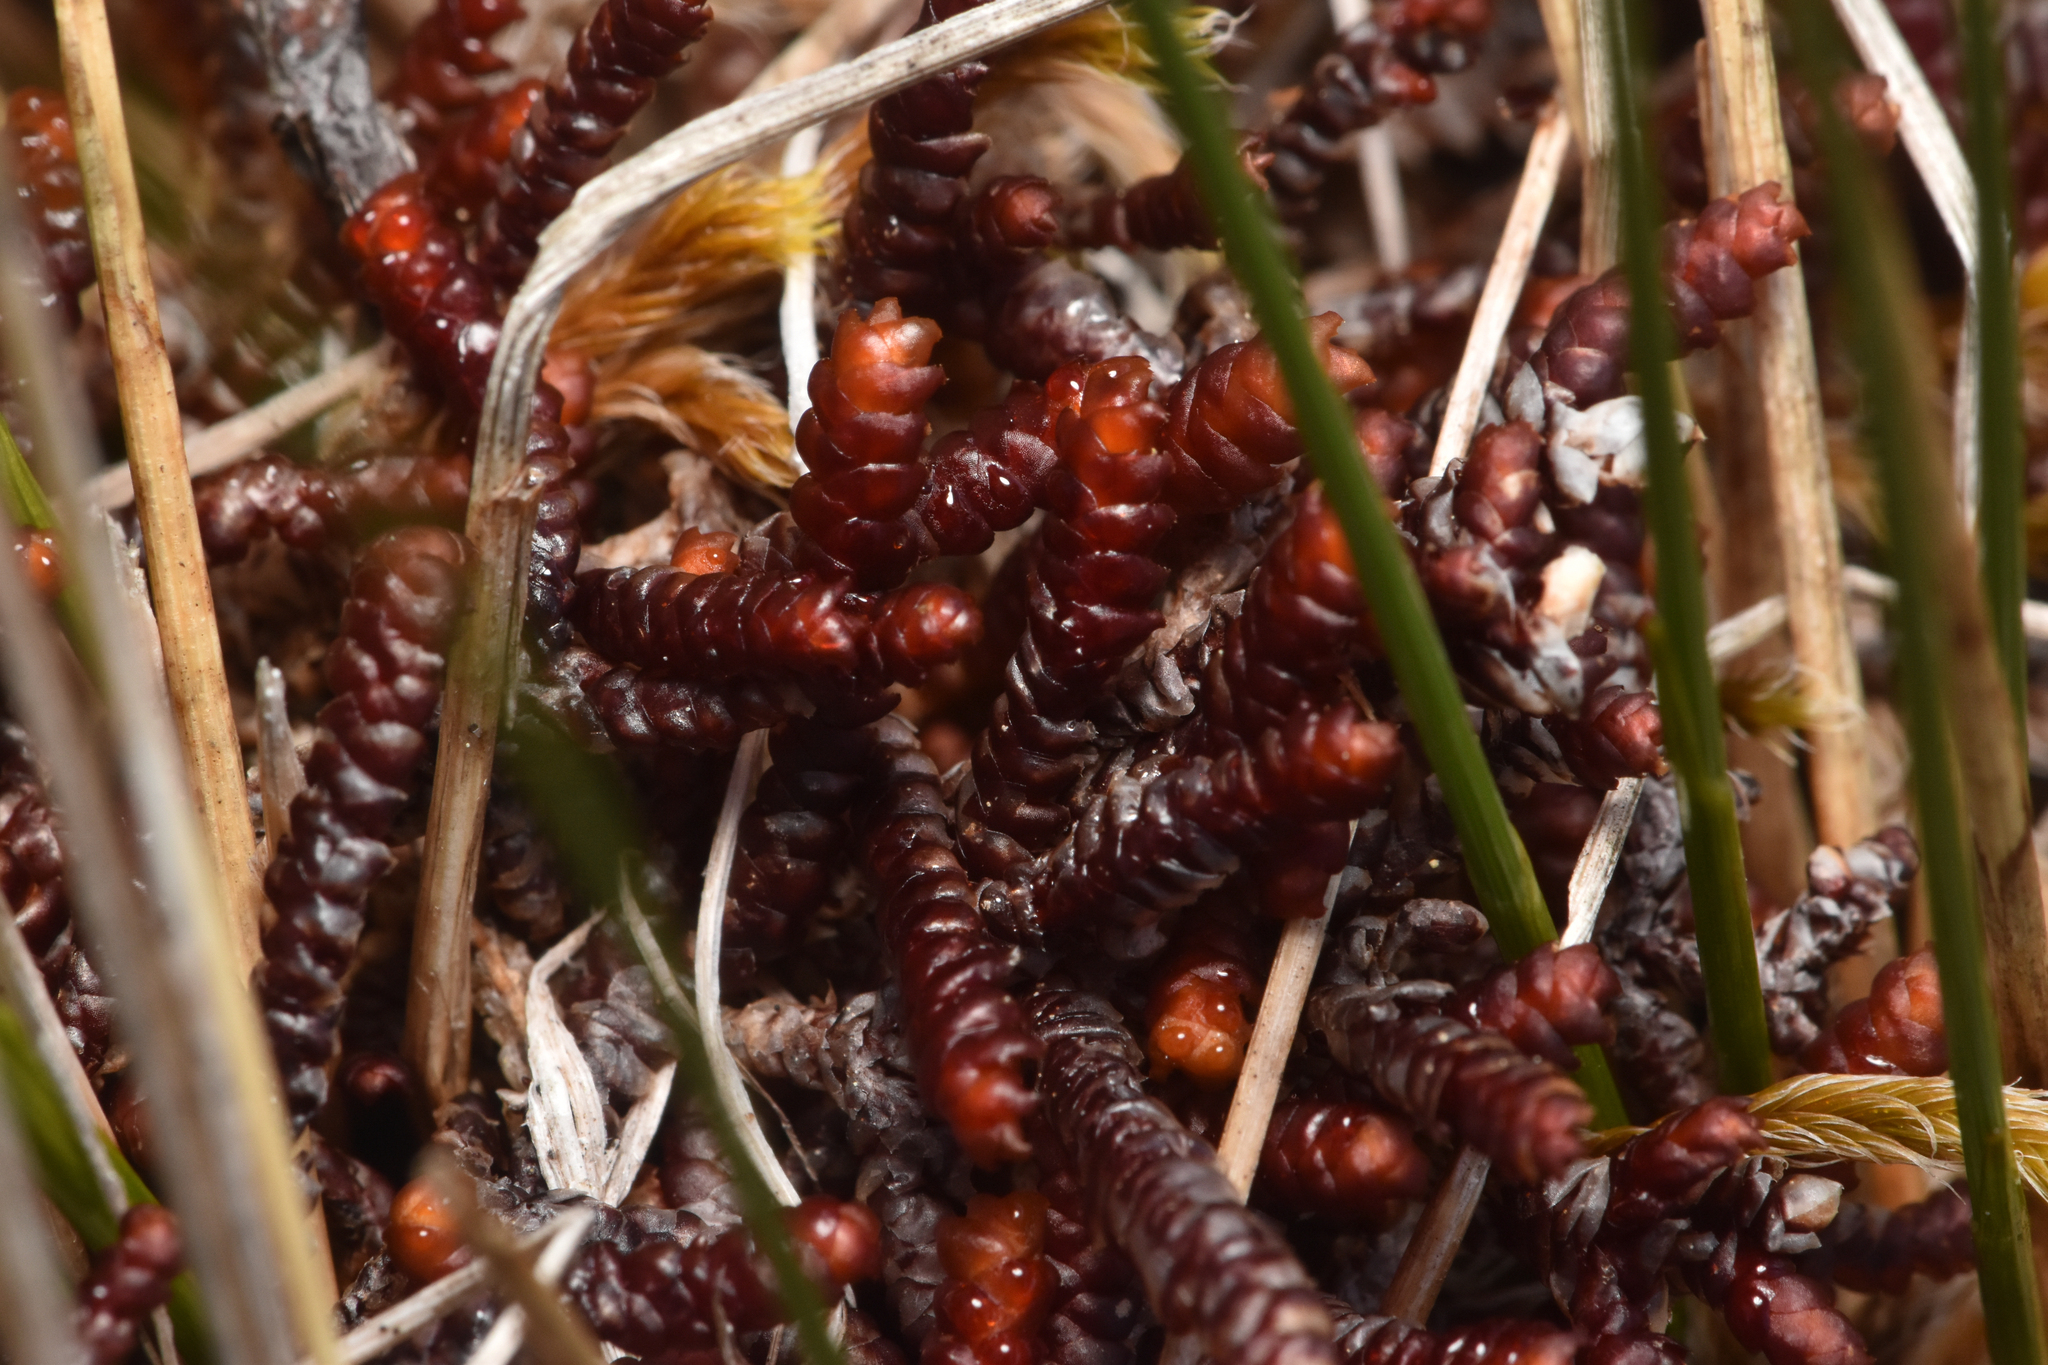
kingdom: Plantae
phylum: Marchantiophyta
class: Jungermanniopsida
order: Pleuroziales
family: Pleuroziaceae
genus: Pleurozia
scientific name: Pleurozia purpurea
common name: Purple spoonwort
